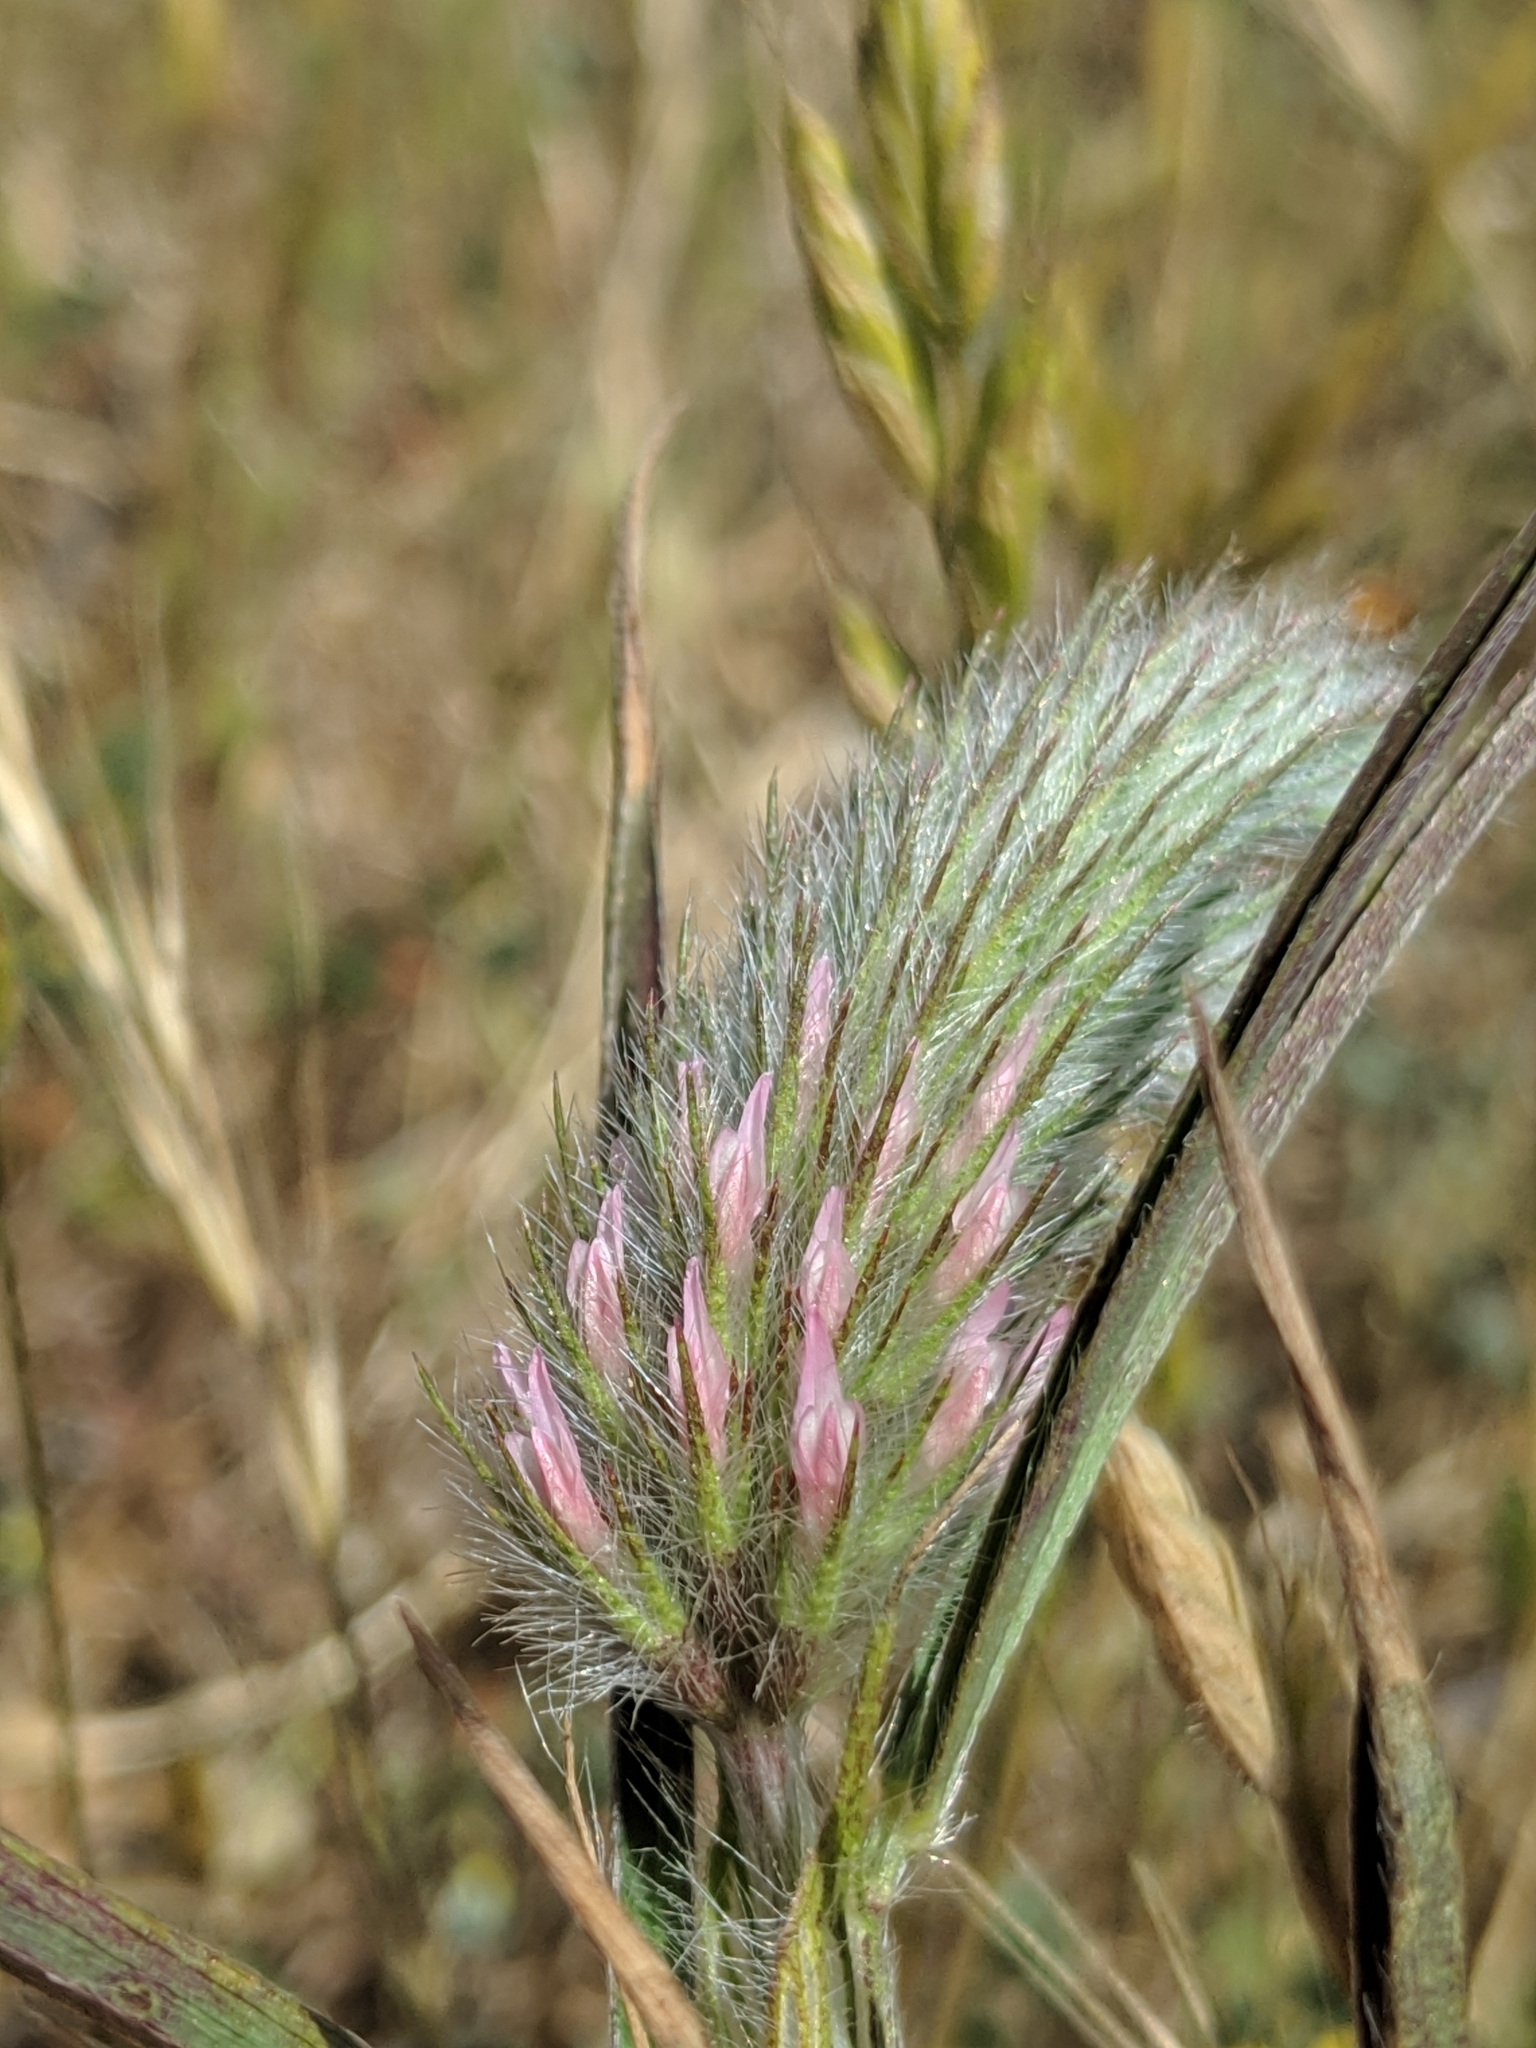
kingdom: Plantae
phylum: Tracheophyta
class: Magnoliopsida
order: Fabales
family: Fabaceae
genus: Trifolium
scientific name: Trifolium angustifolium
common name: Narrow clover
